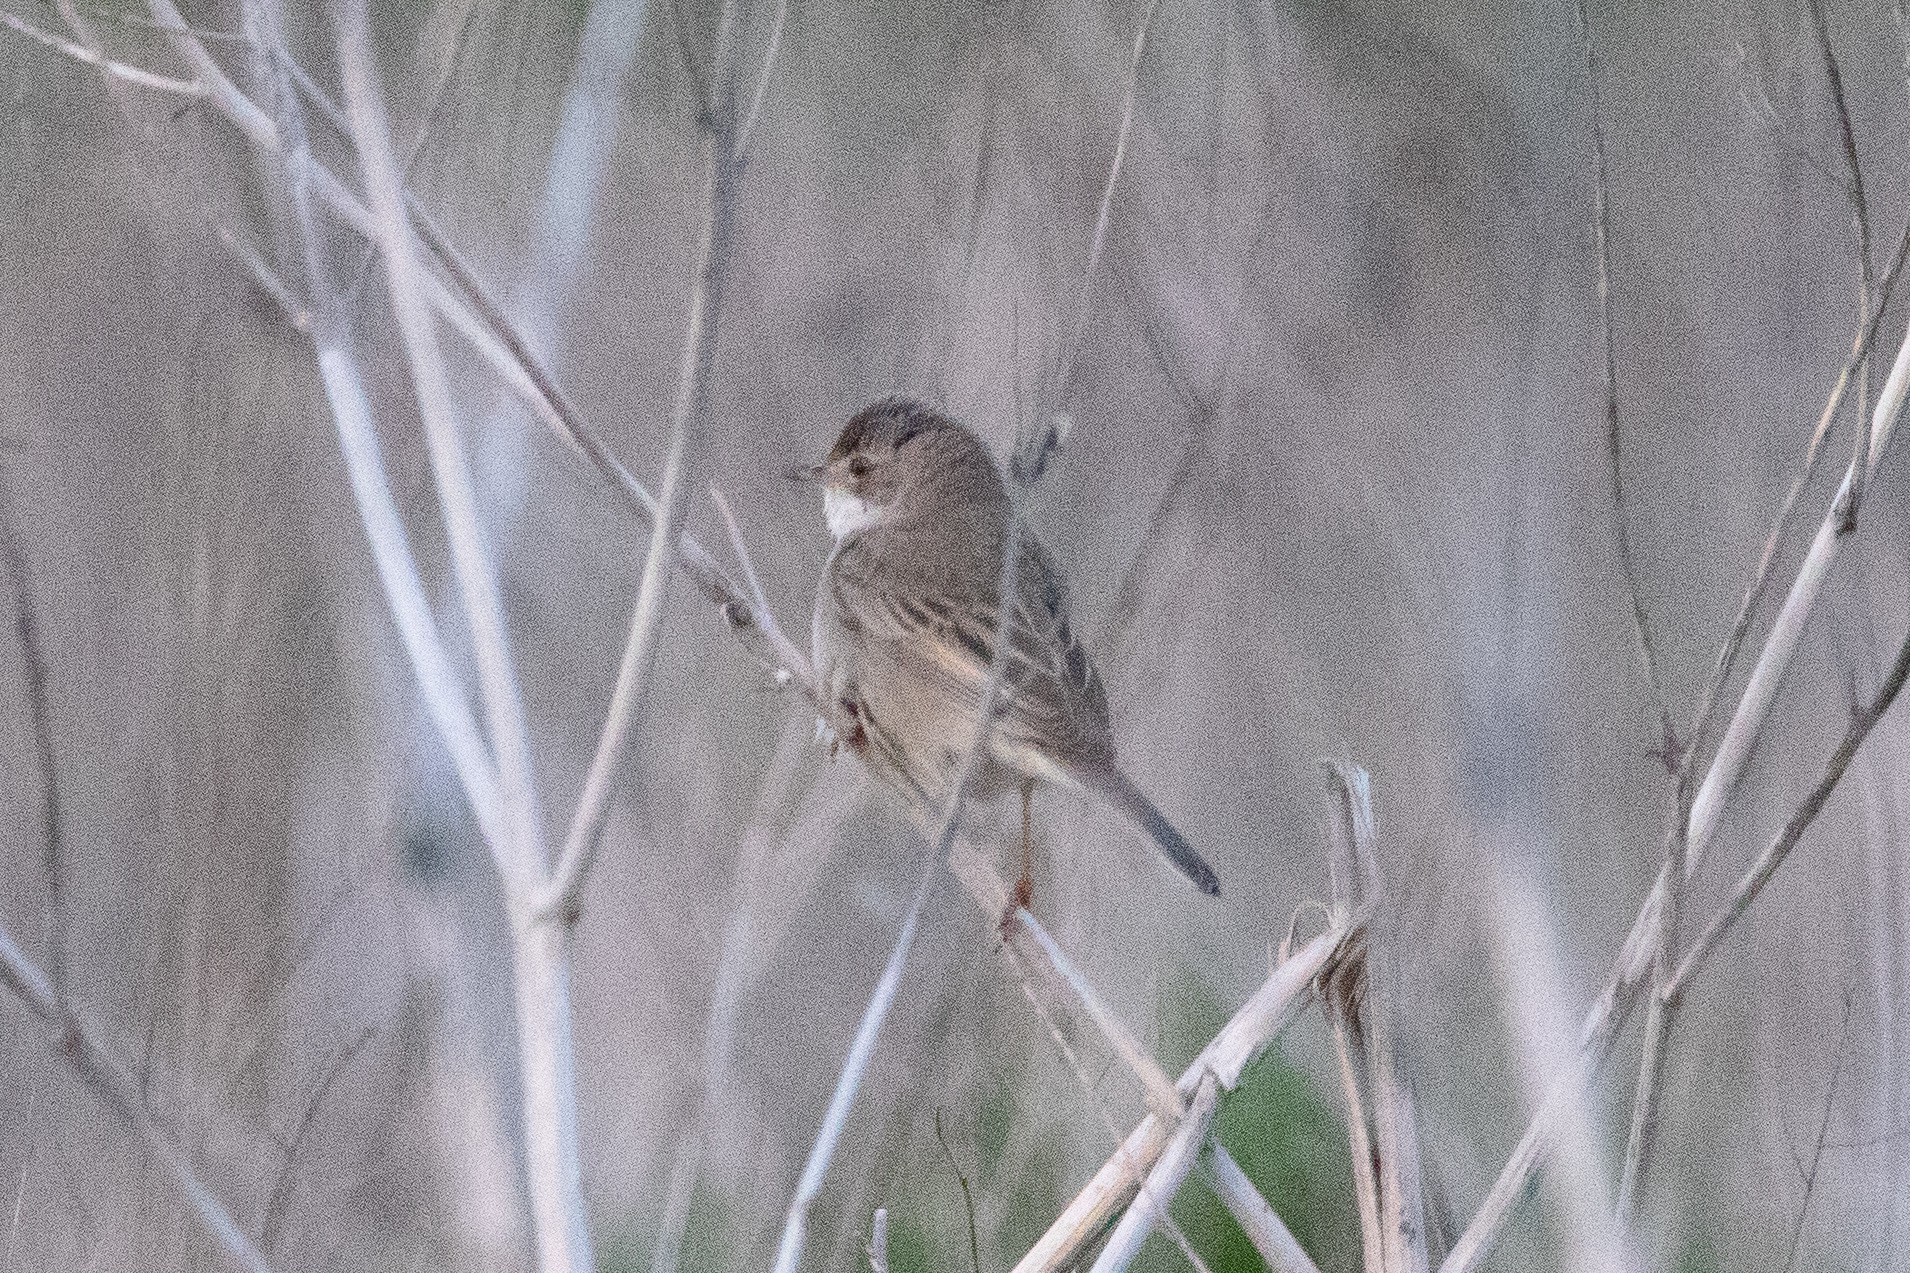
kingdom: Animalia
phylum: Chordata
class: Aves
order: Passeriformes
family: Sylviidae
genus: Sylvia
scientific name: Sylvia communis
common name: Common whitethroat
